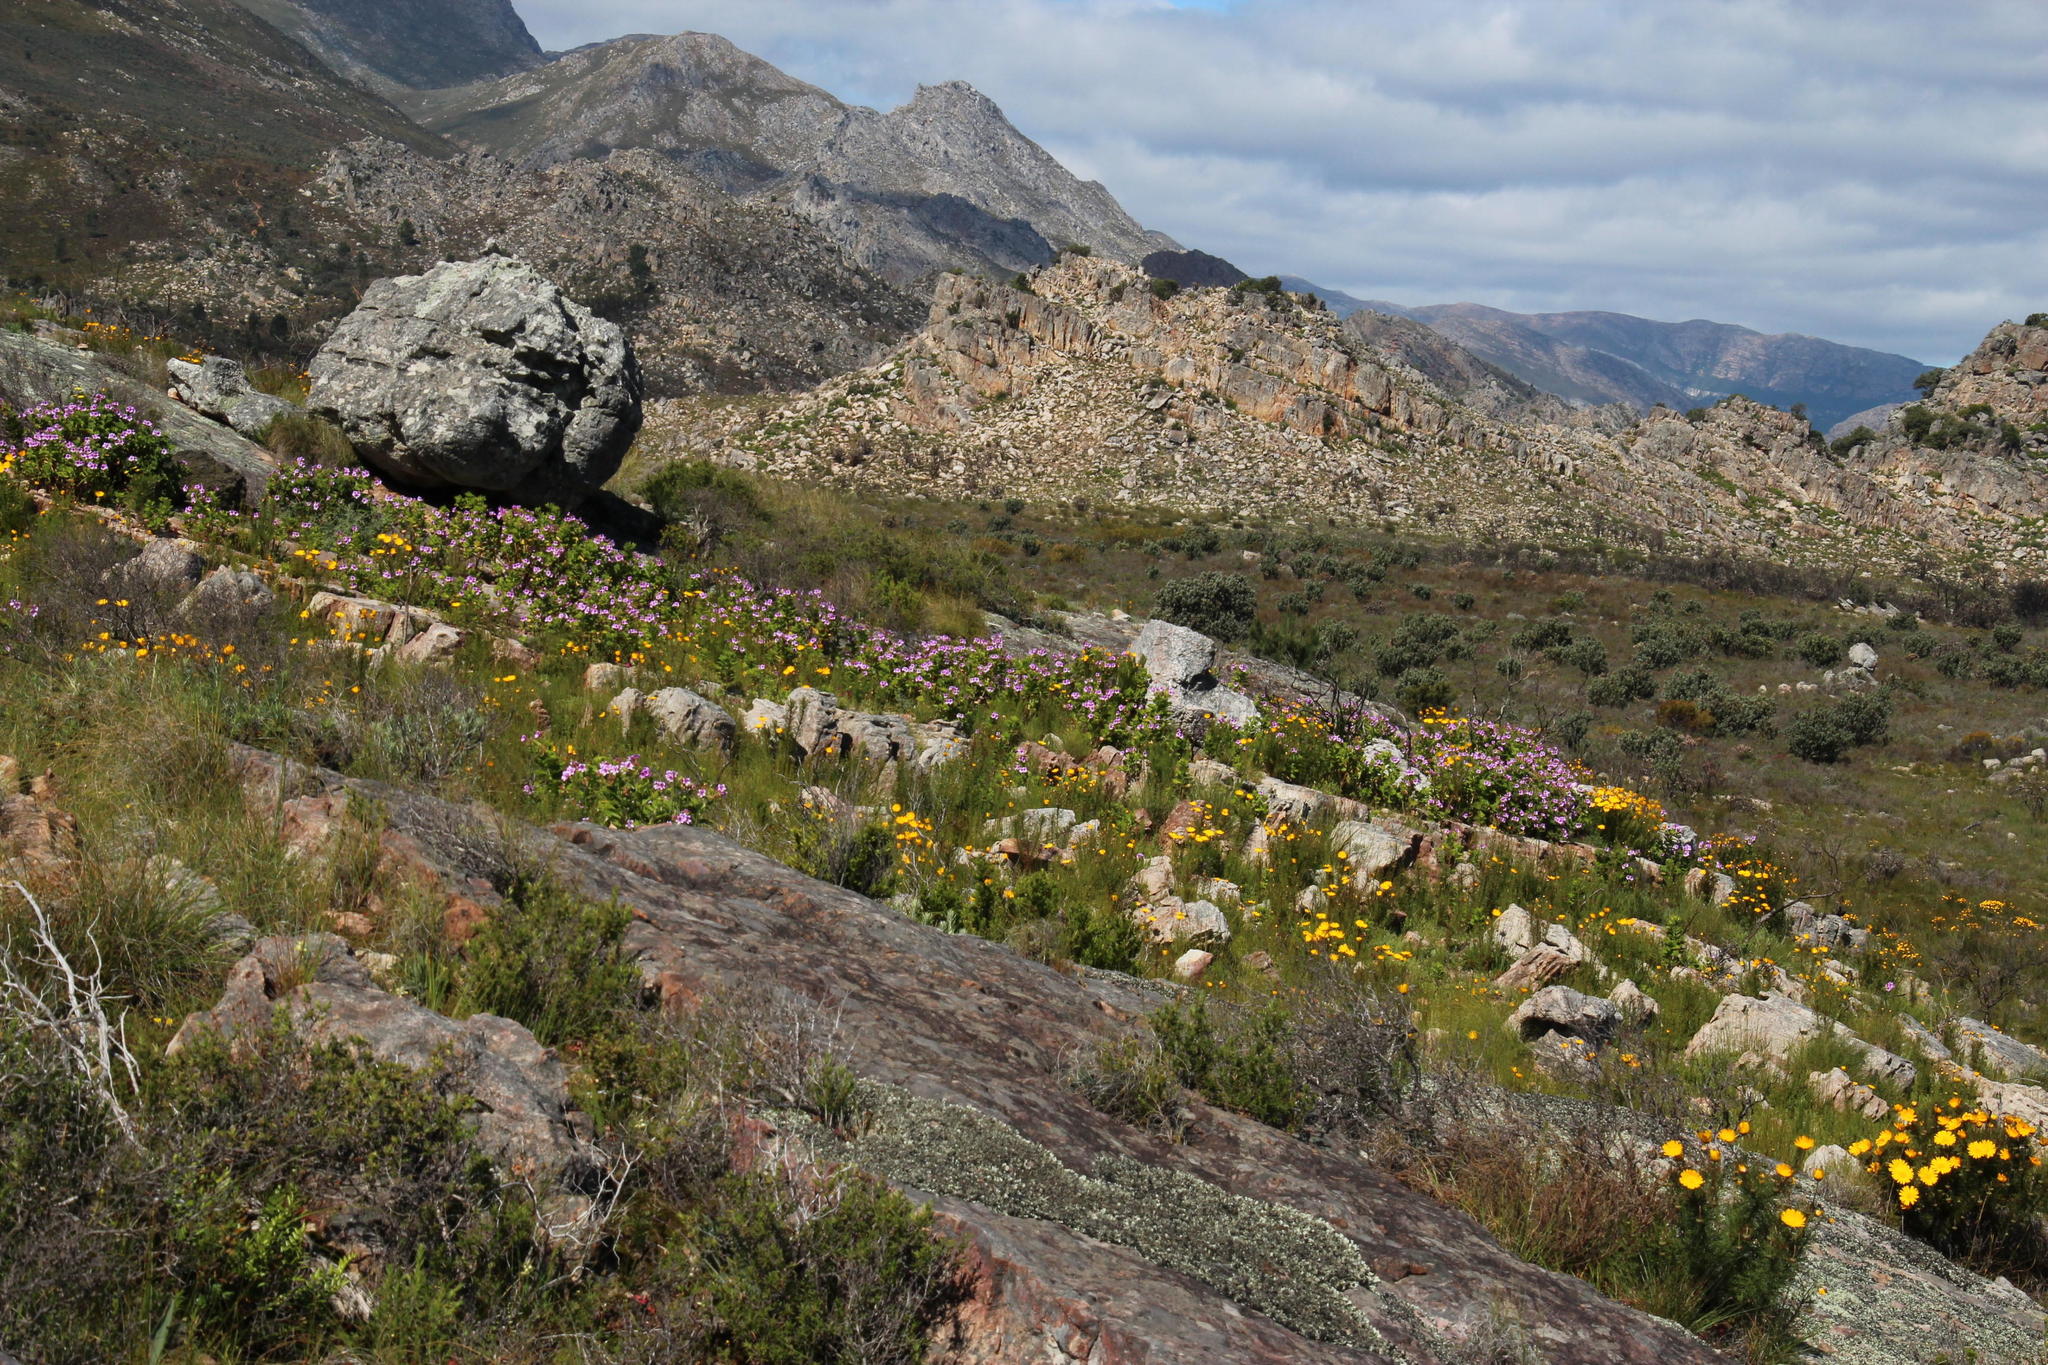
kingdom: Plantae
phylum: Tracheophyta
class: Magnoliopsida
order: Geraniales
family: Geraniaceae
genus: Pelargonium
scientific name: Pelargonium cucullatum
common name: Tree pelargonium
